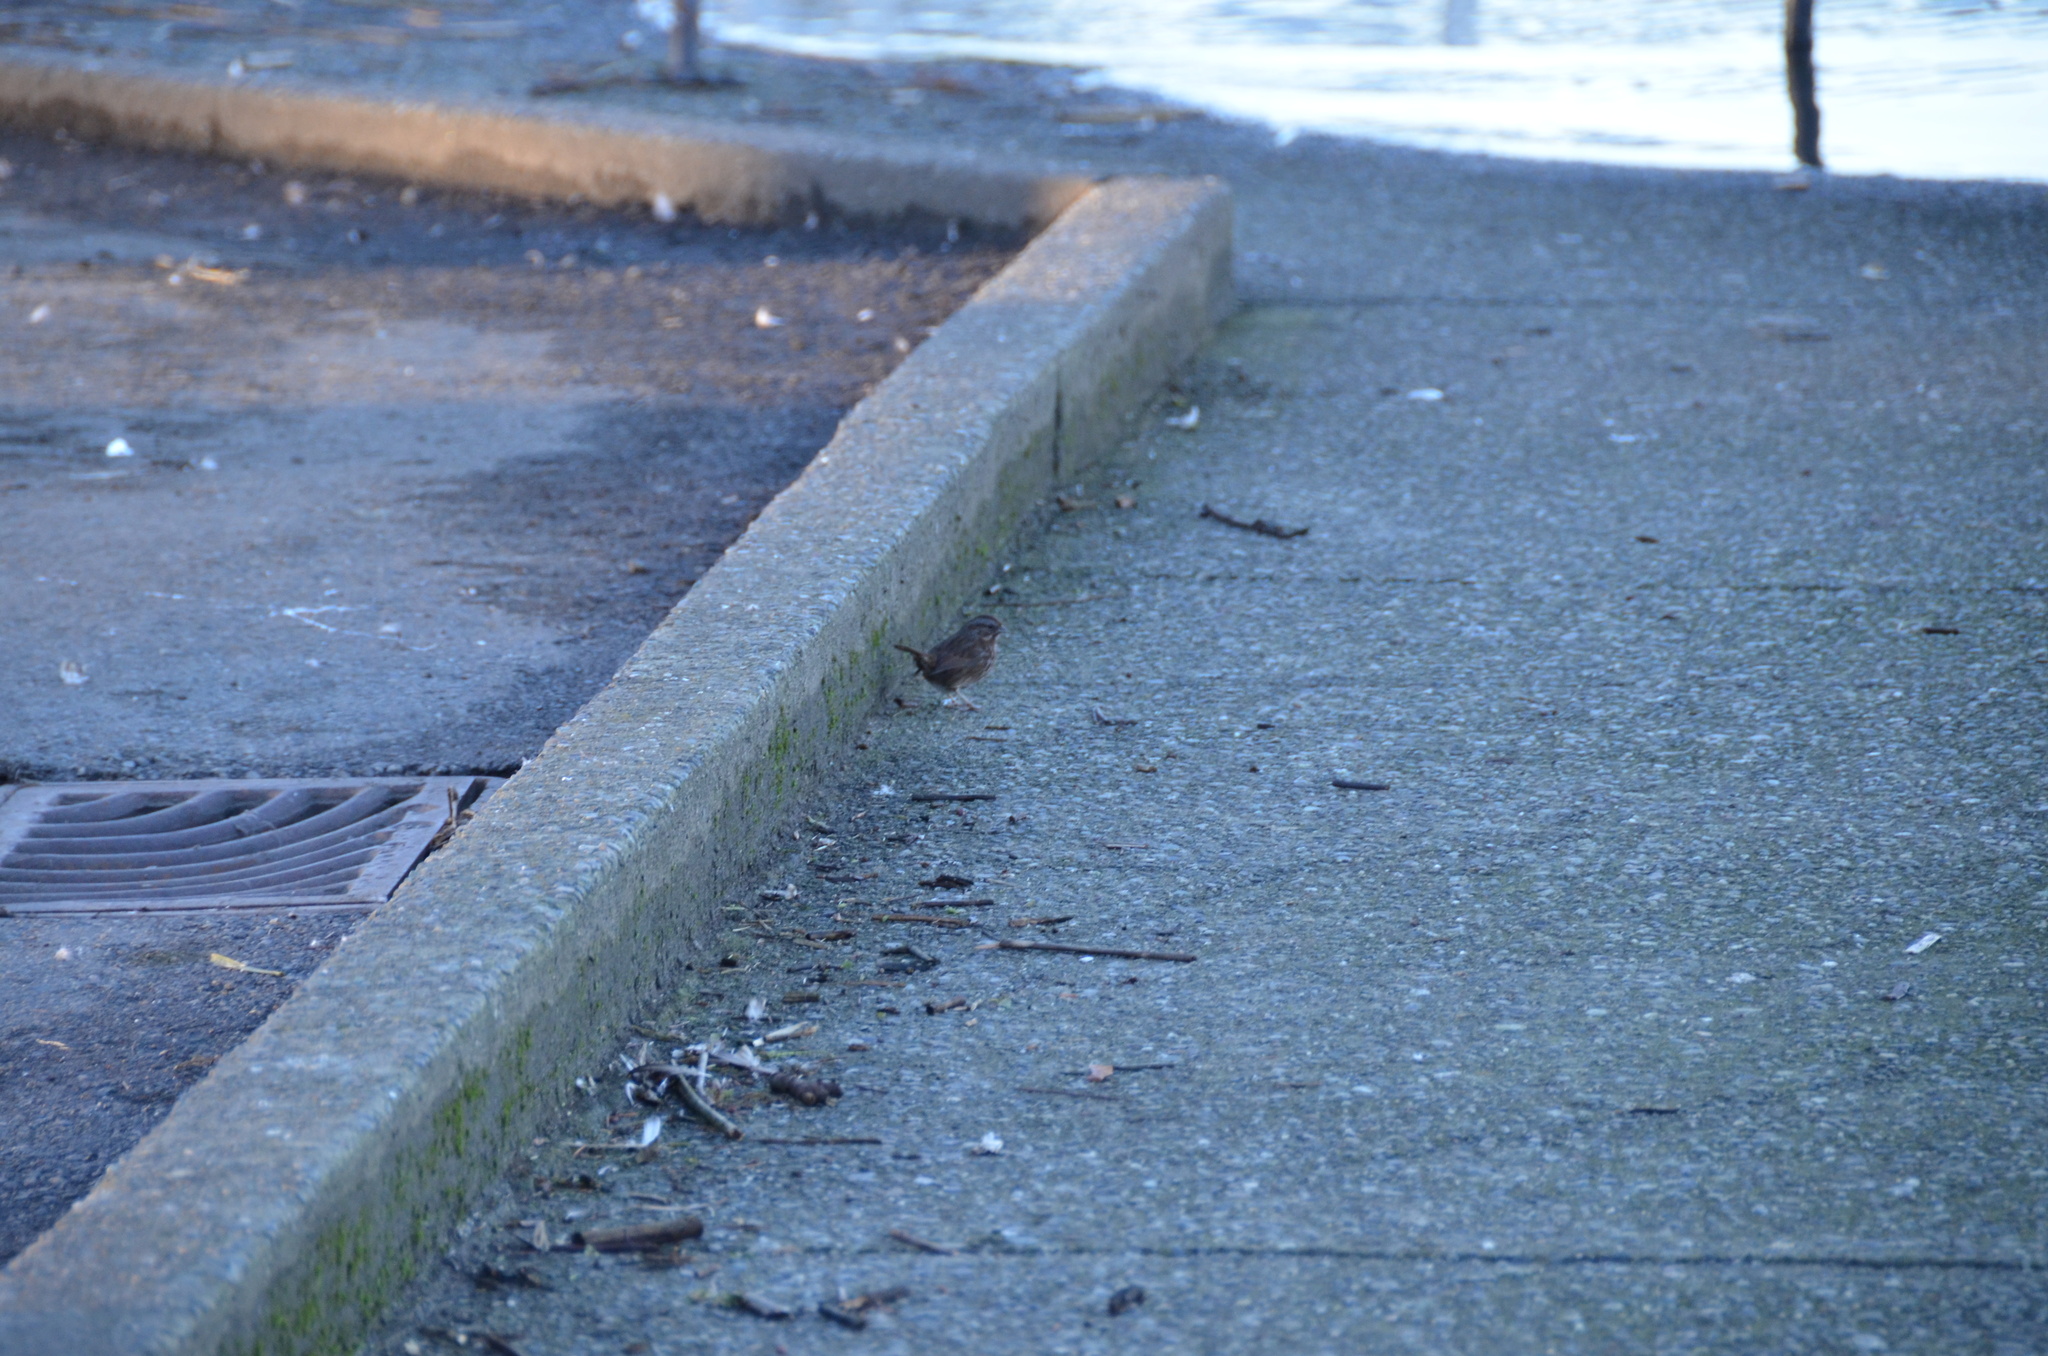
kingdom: Animalia
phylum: Chordata
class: Aves
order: Passeriformes
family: Passerellidae
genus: Melospiza
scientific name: Melospiza melodia
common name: Song sparrow
